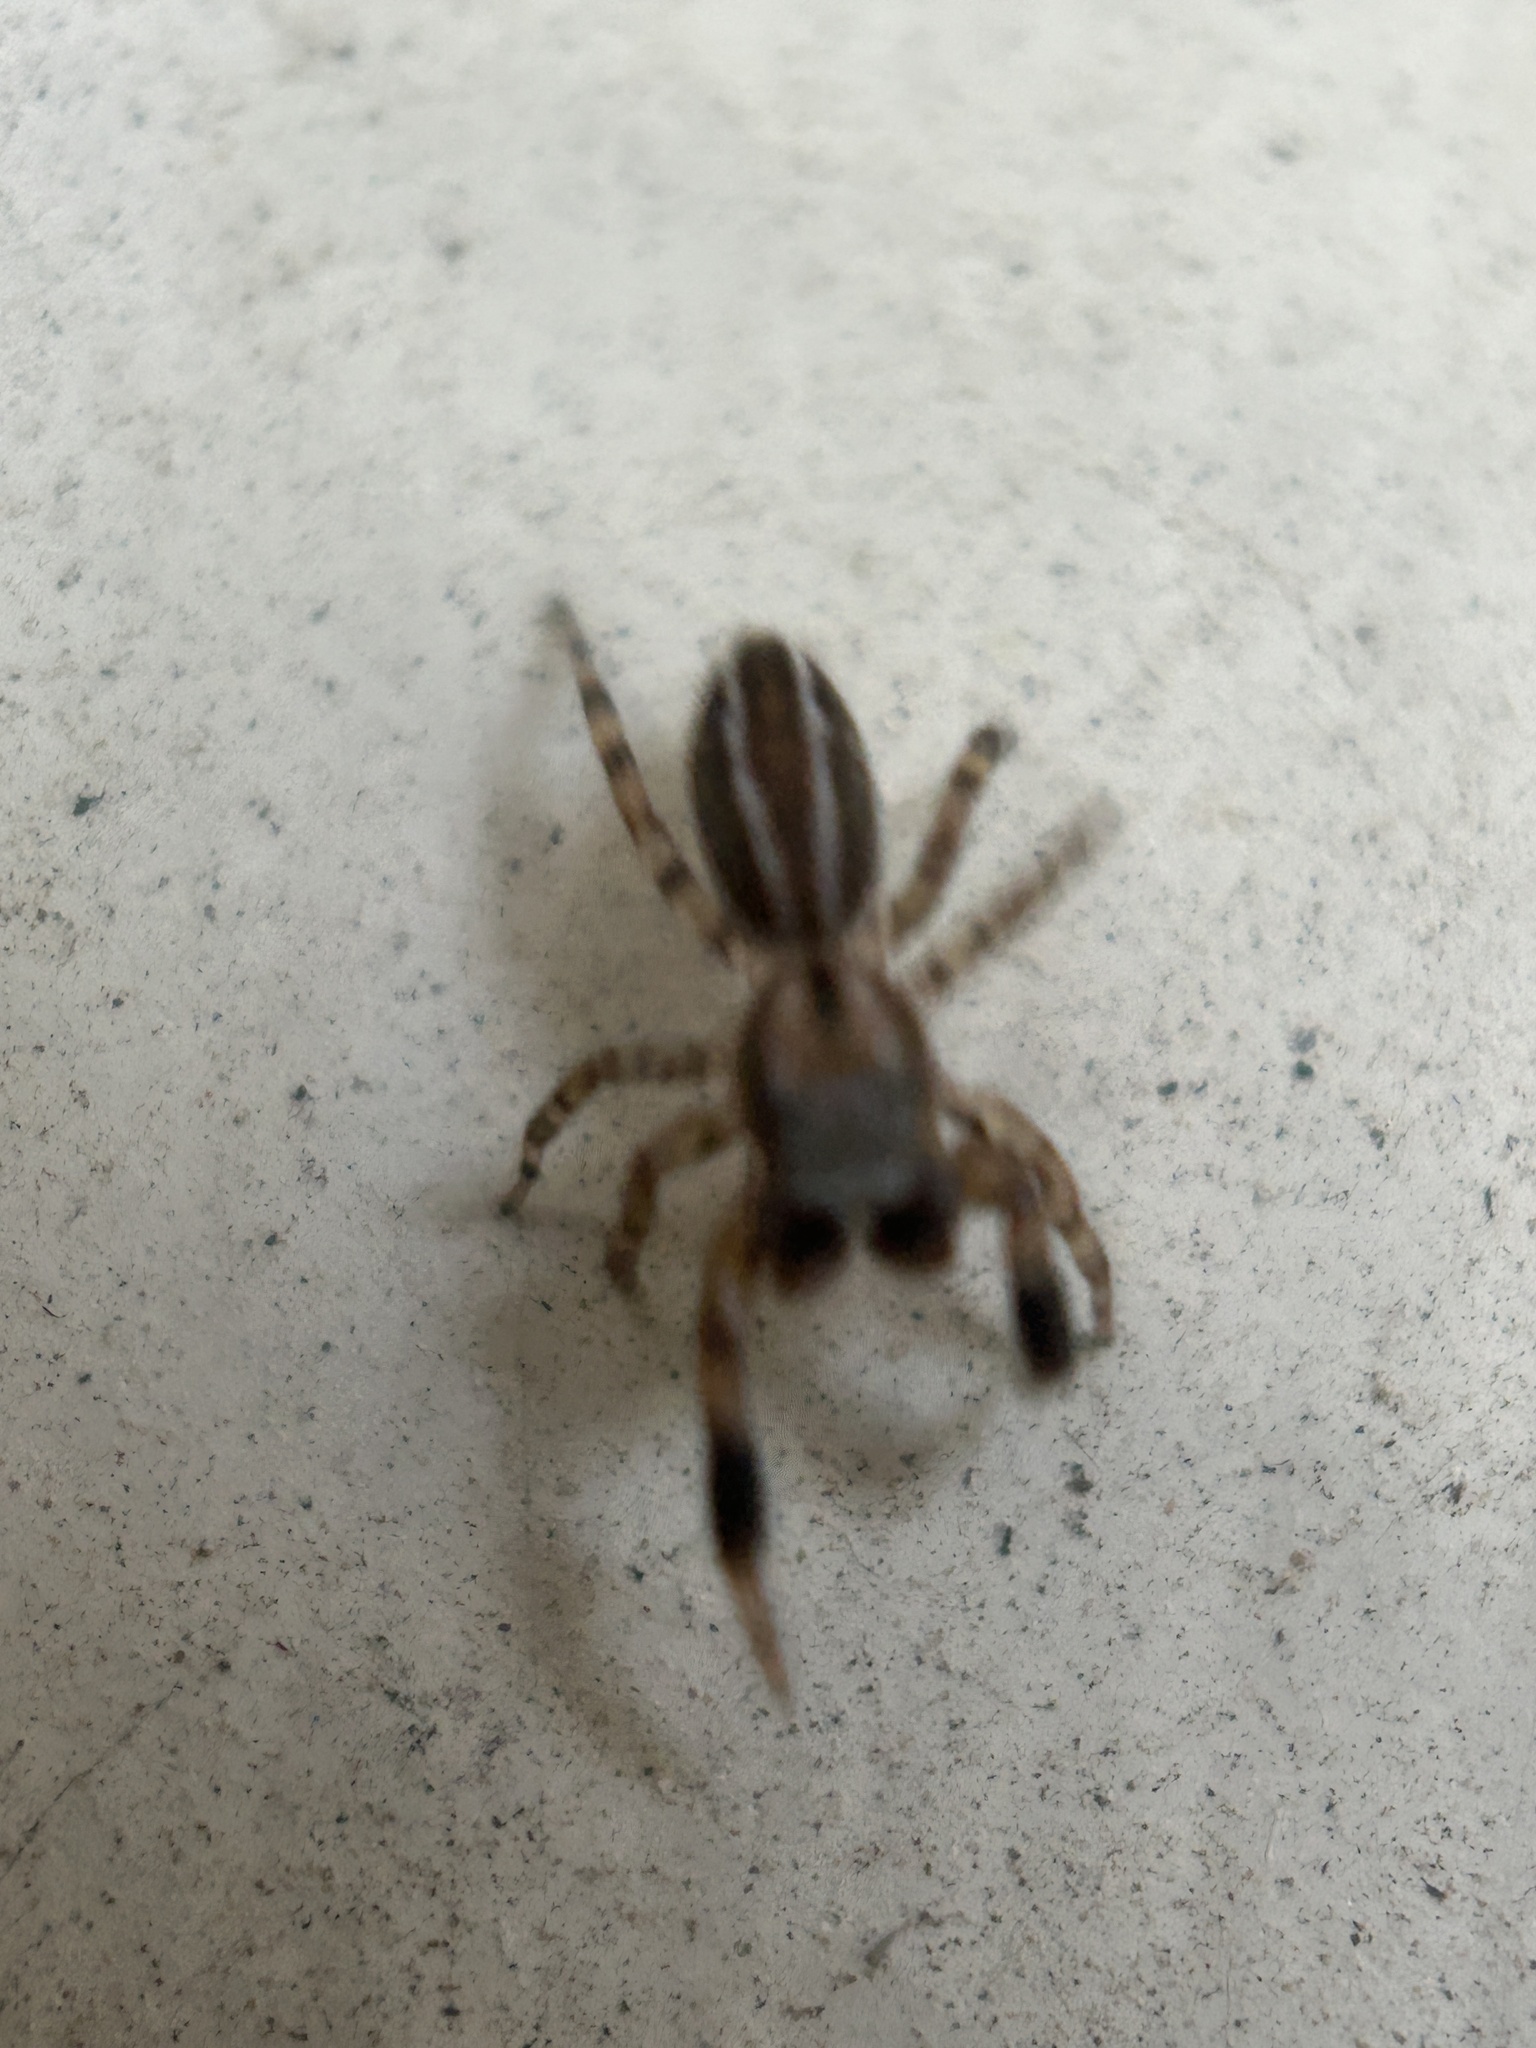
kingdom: Animalia
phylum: Arthropoda
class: Arachnida
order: Araneae
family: Salticidae
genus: Marpissa
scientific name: Marpissa lineata
